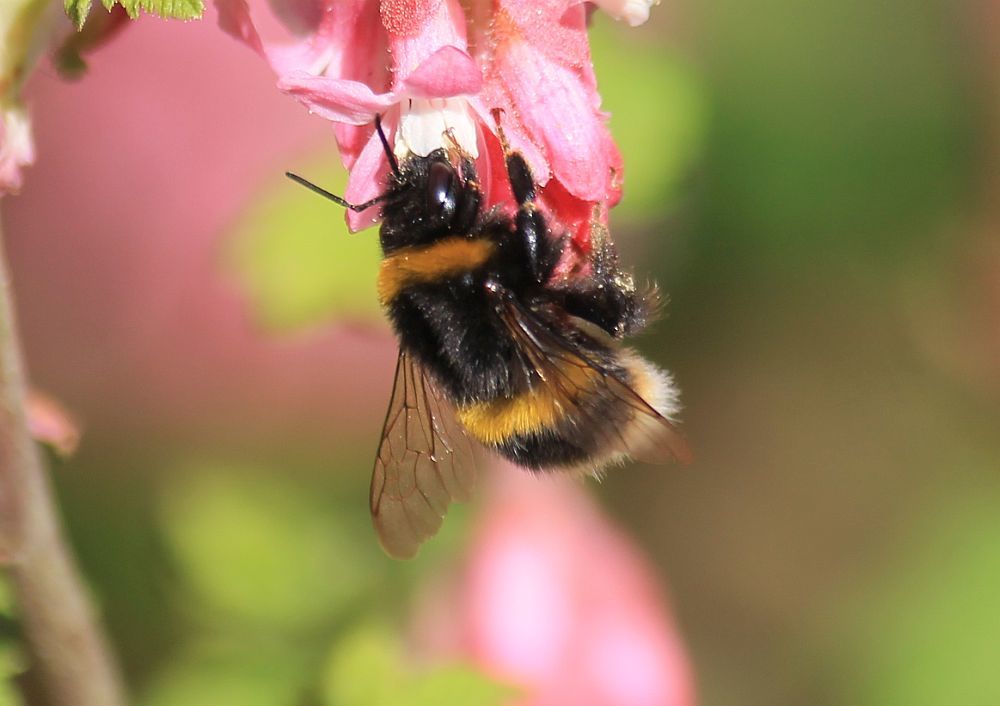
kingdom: Animalia
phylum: Arthropoda
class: Insecta
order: Hymenoptera
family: Apidae
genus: Bombus
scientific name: Bombus terrestris
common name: Buff-tailed bumblebee
